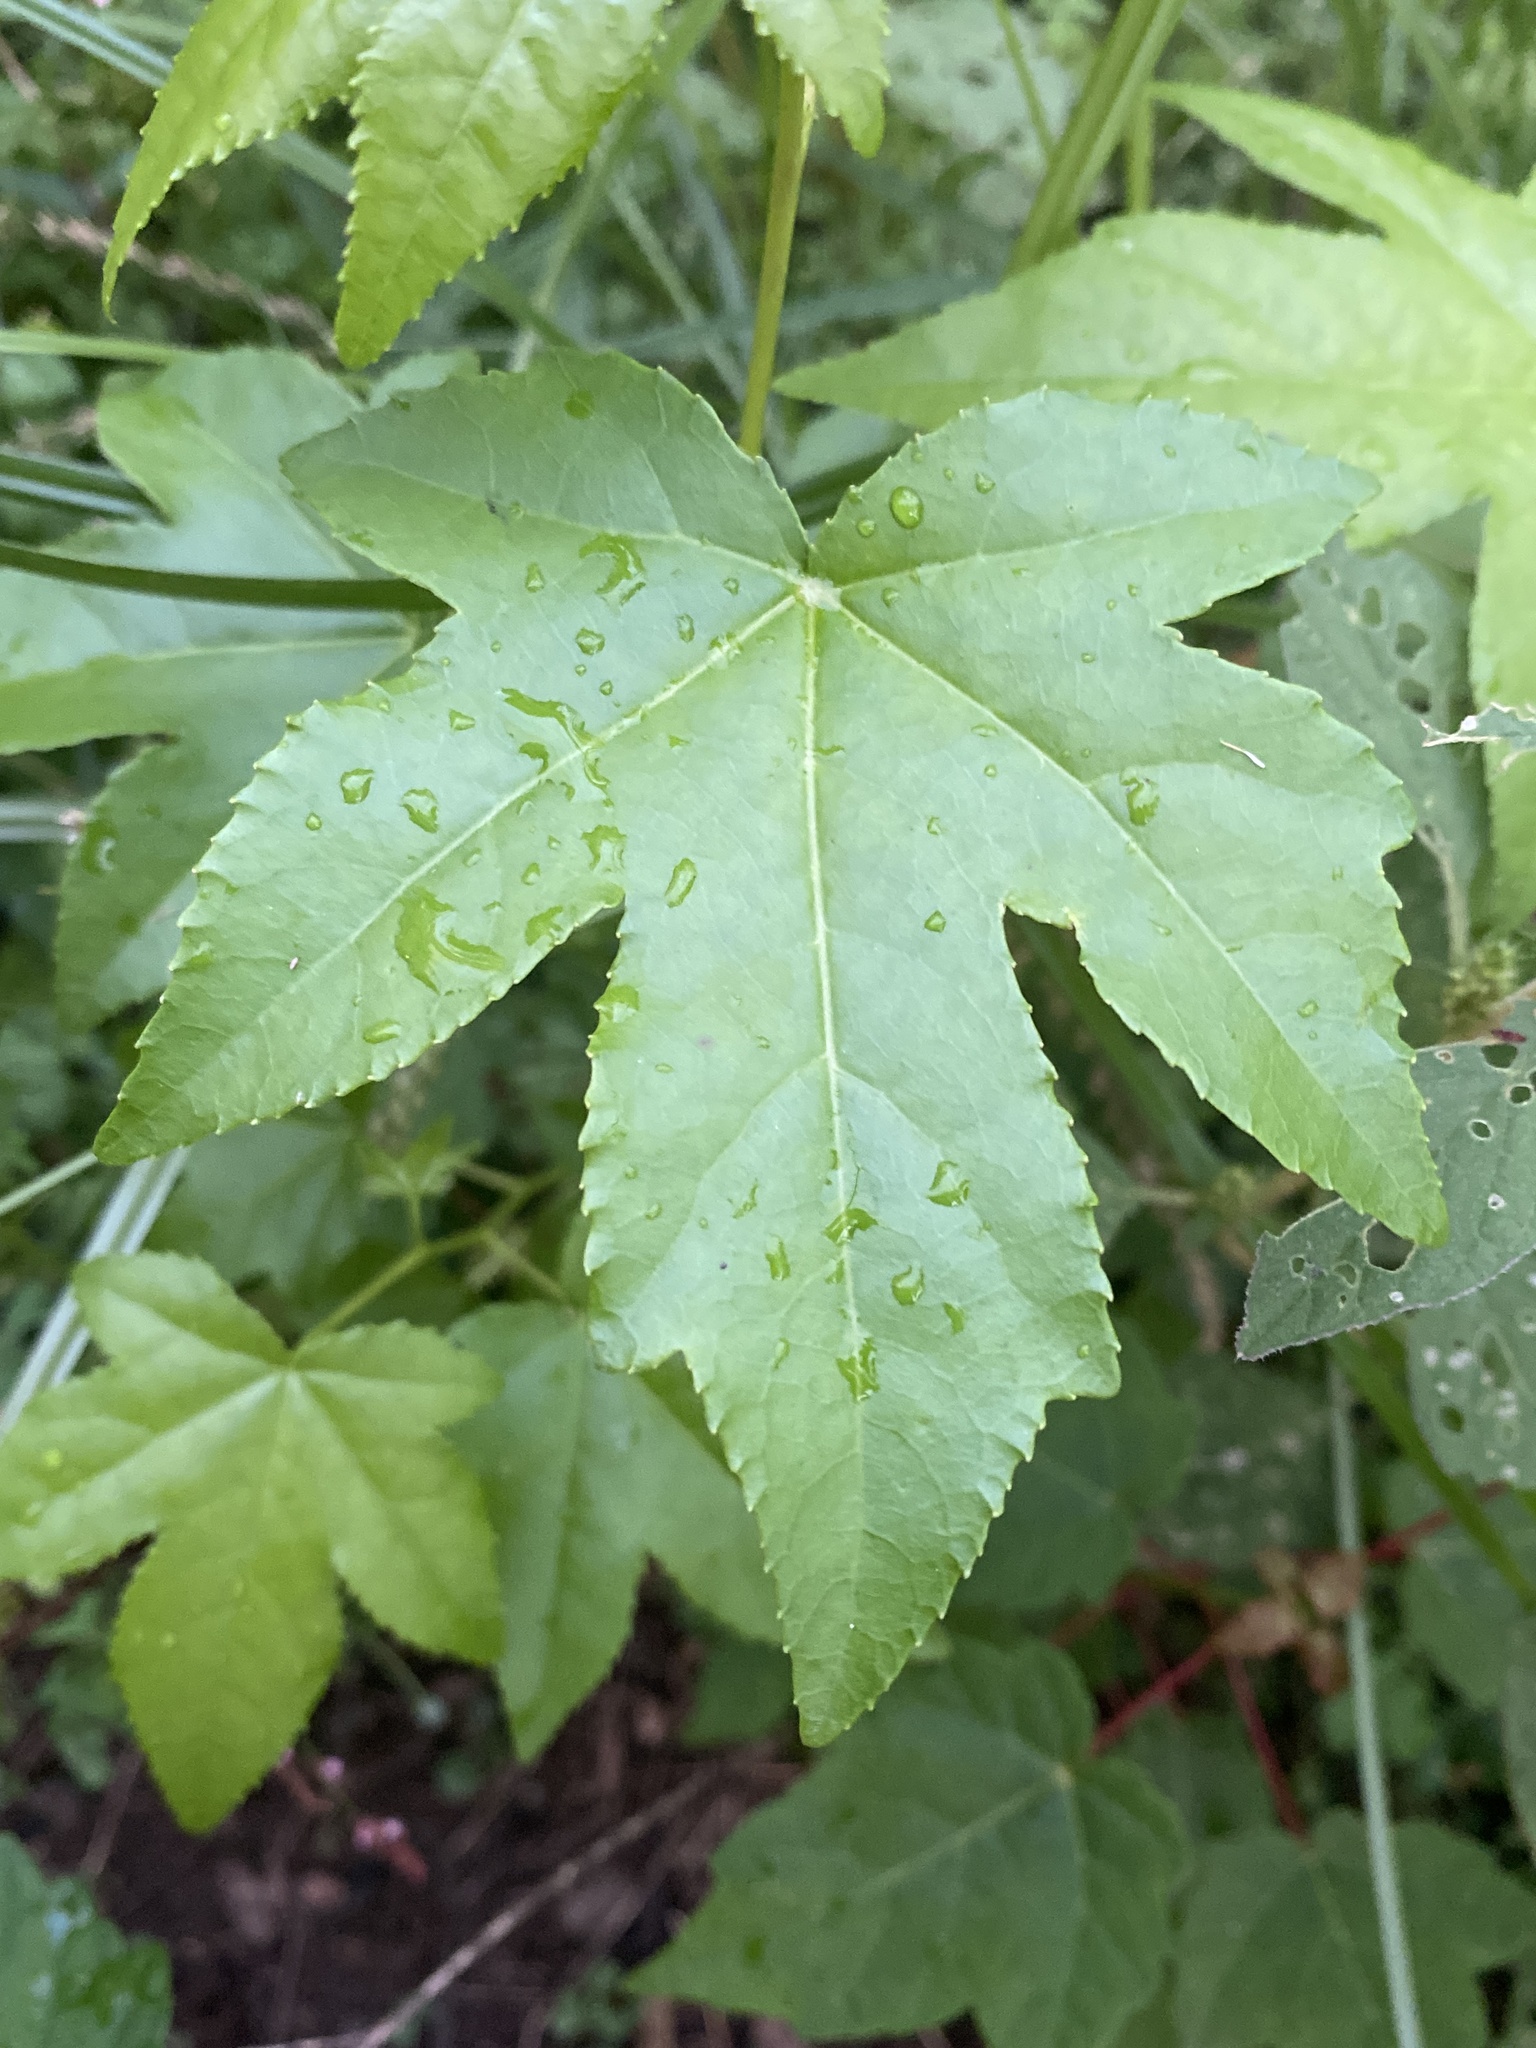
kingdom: Plantae
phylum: Tracheophyta
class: Magnoliopsida
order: Saxifragales
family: Altingiaceae
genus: Liquidambar
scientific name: Liquidambar styraciflua
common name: Sweet gum
